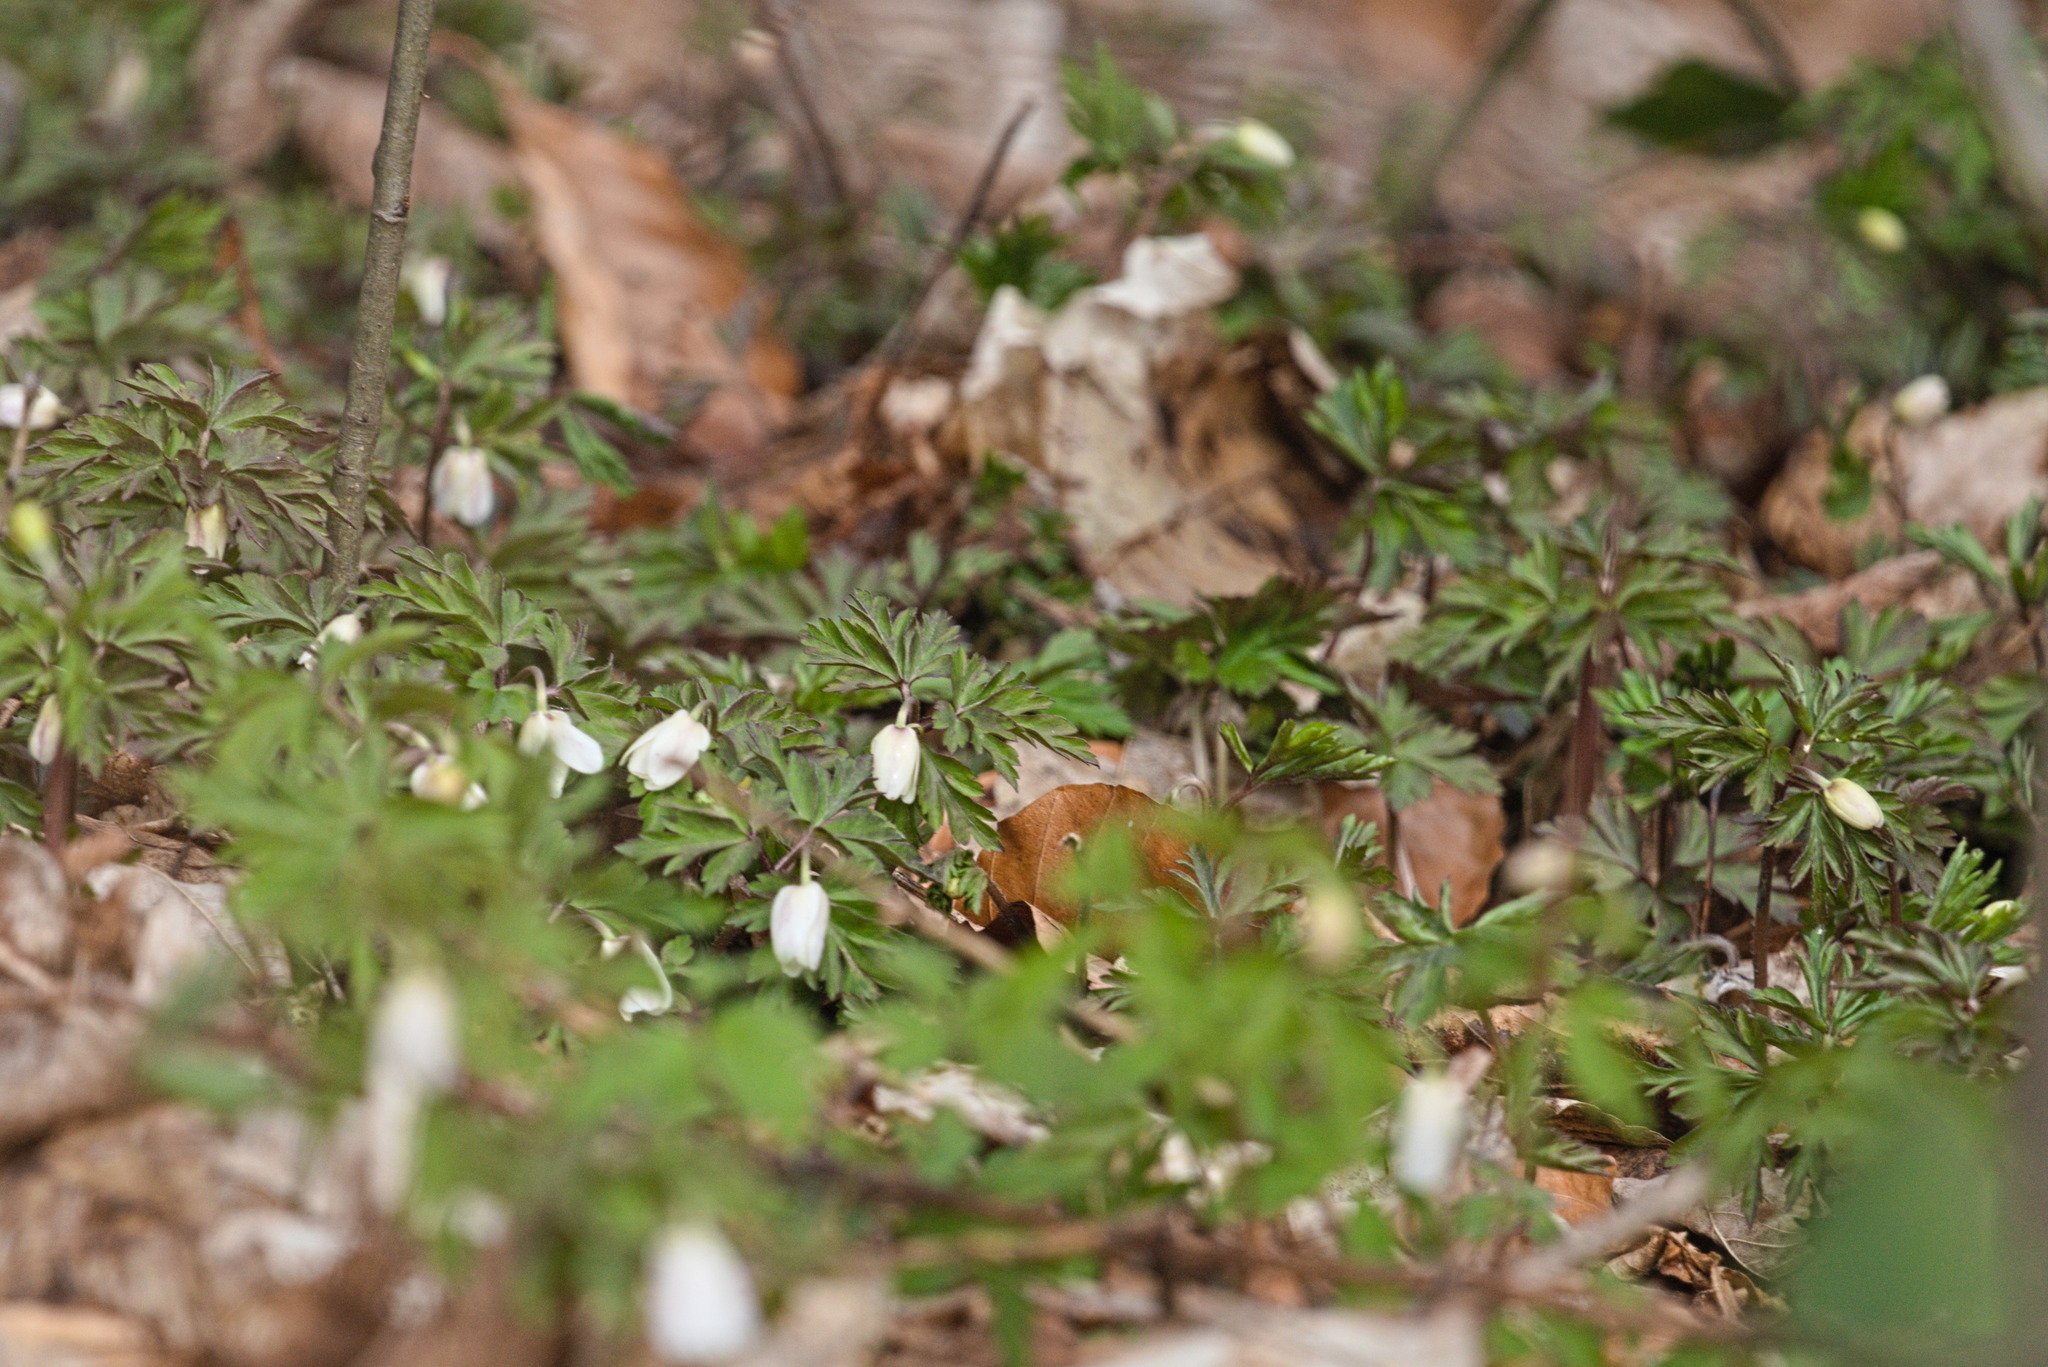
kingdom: Plantae
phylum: Tracheophyta
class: Magnoliopsida
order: Ranunculales
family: Ranunculaceae
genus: Anemone
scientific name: Anemone nemorosa
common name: Wood anemone
